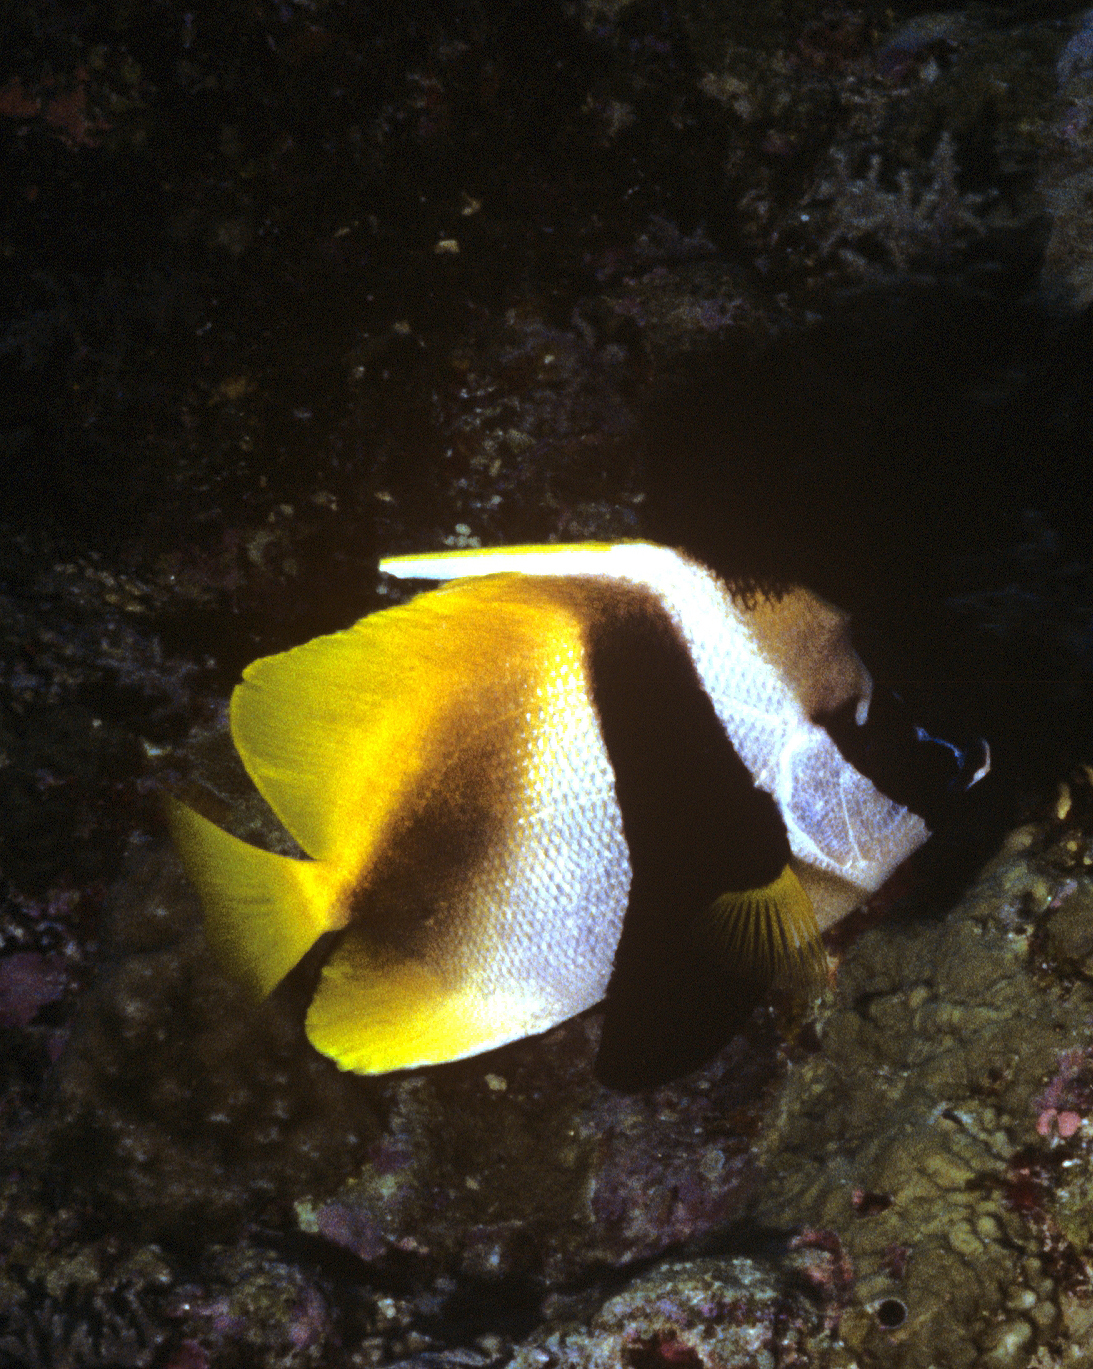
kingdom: Animalia
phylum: Chordata
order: Perciformes
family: Chaetodontidae
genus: Heniochus
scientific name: Heniochus monoceros
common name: Masked bannerfish
